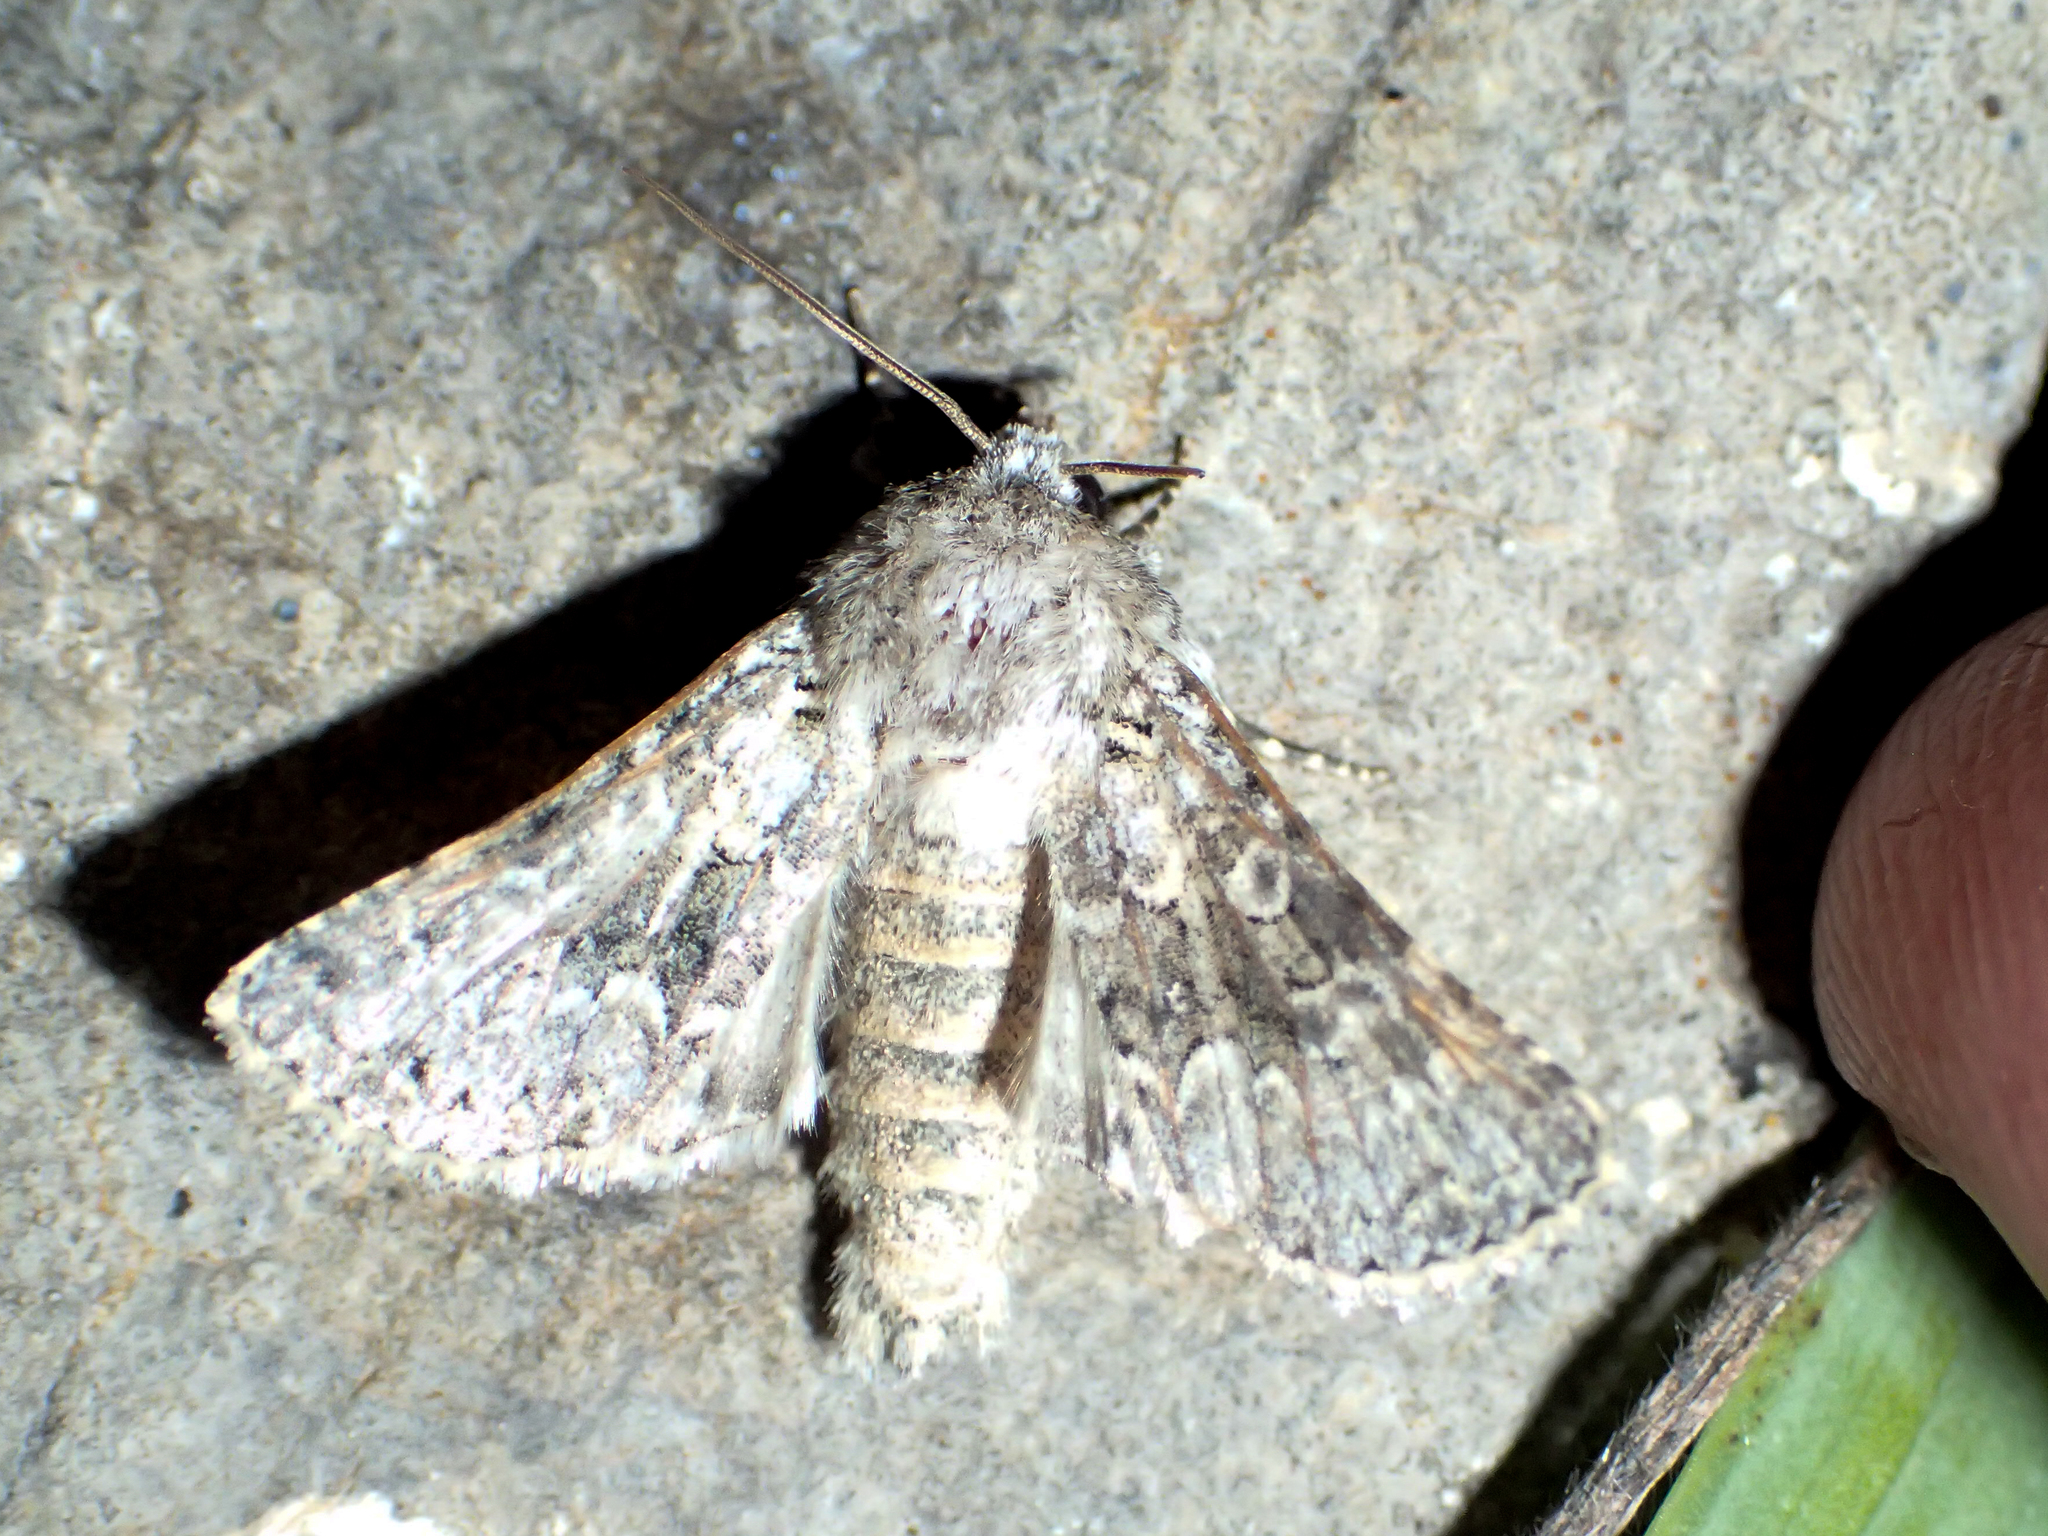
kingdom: Animalia
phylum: Arthropoda
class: Insecta
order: Lepidoptera
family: Noctuidae
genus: Hecatera
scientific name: Hecatera bicolorata
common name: Broad-barred white
